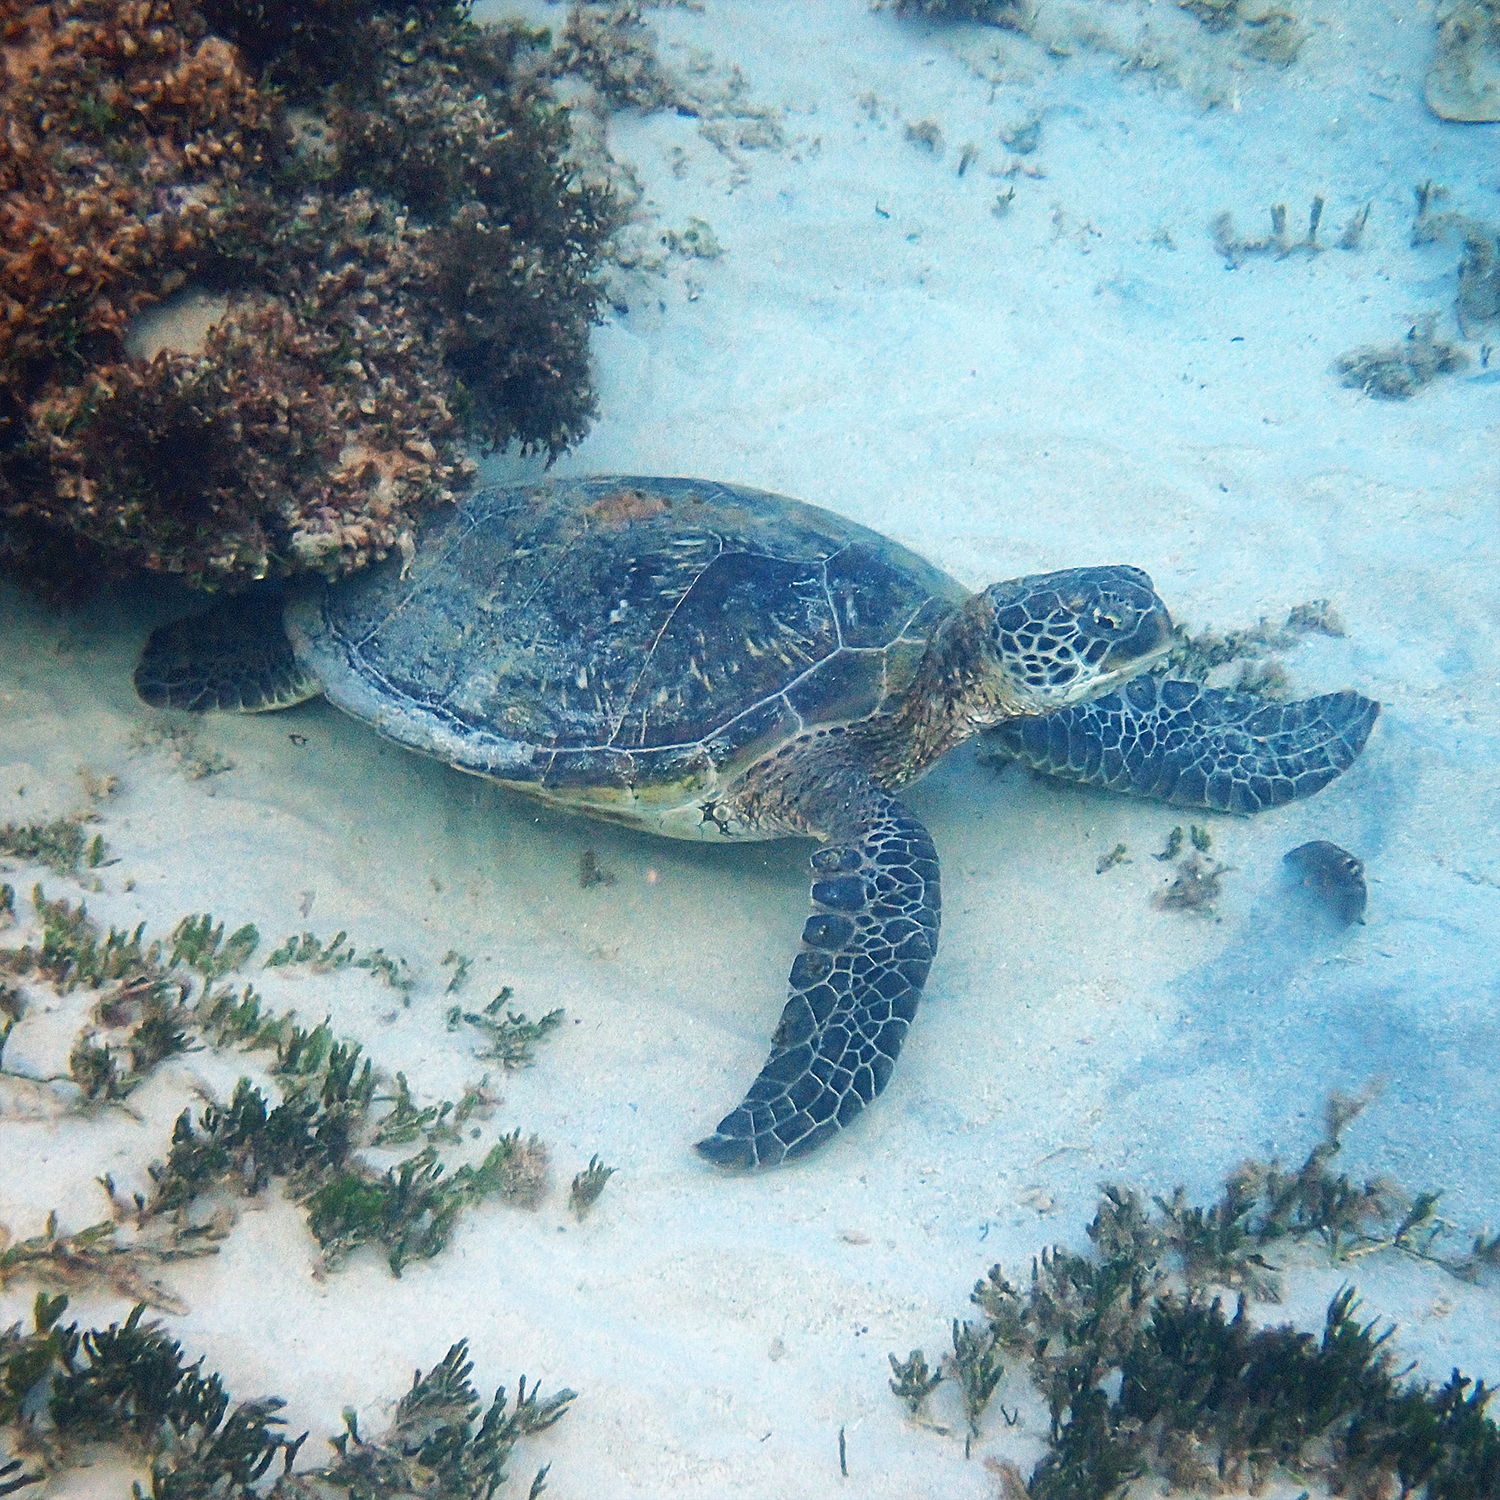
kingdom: Animalia
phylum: Chordata
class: Testudines
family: Cheloniidae
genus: Chelonia
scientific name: Chelonia mydas
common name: Green turtle
